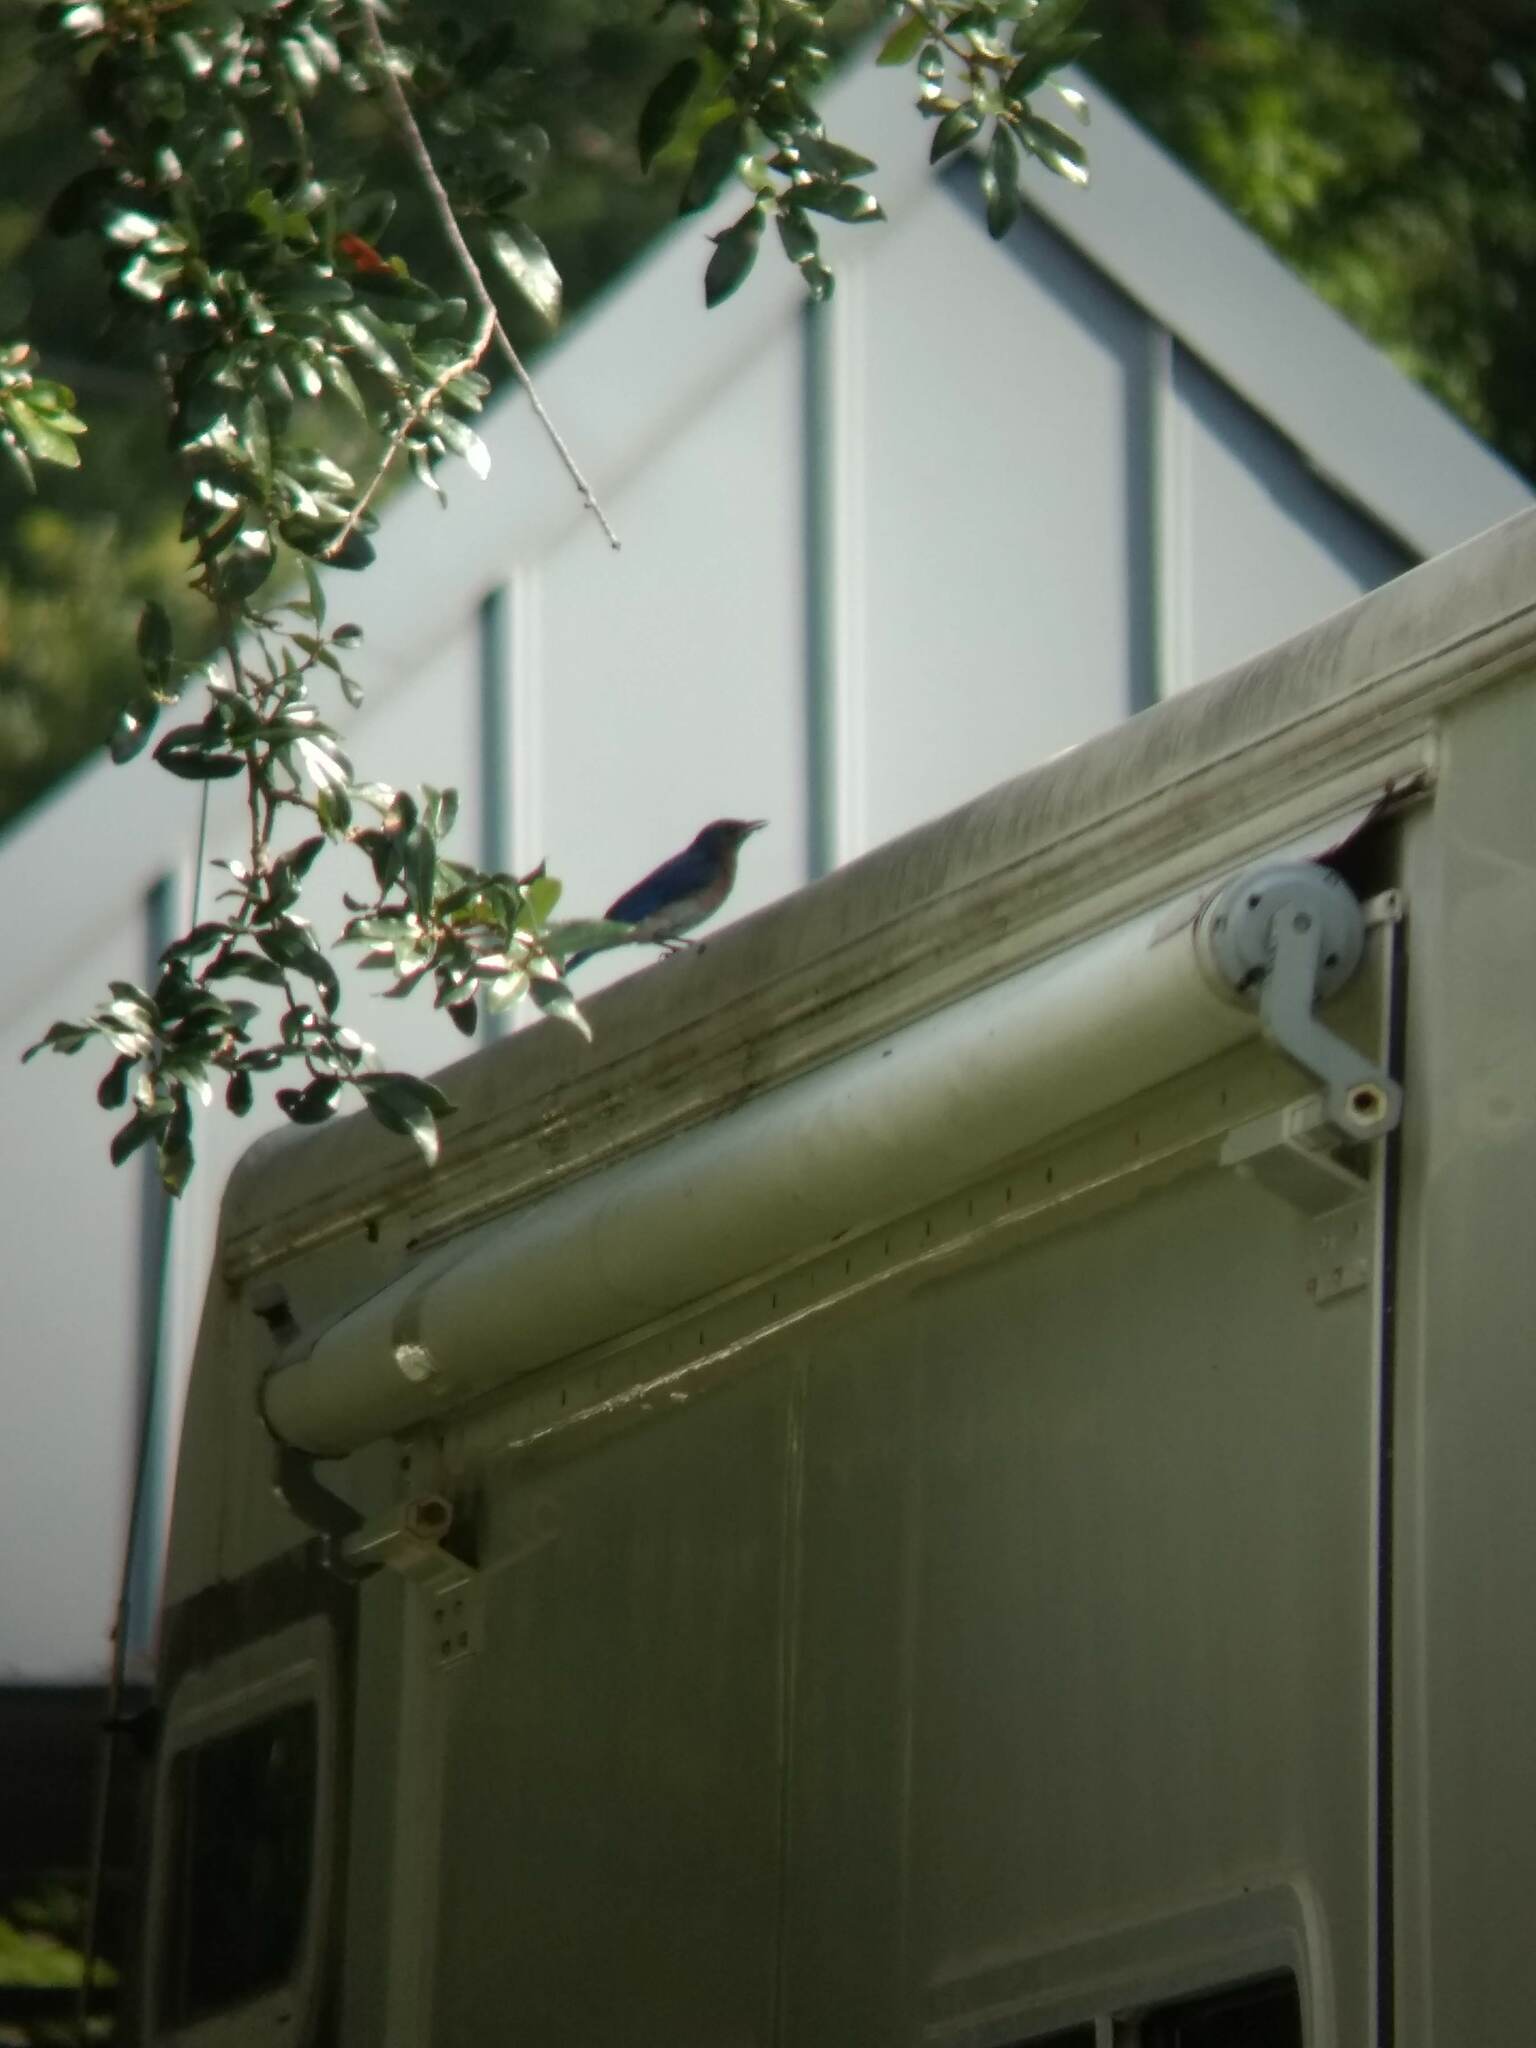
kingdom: Animalia
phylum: Chordata
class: Aves
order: Passeriformes
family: Turdidae
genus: Sialia
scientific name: Sialia sialis
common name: Eastern bluebird
